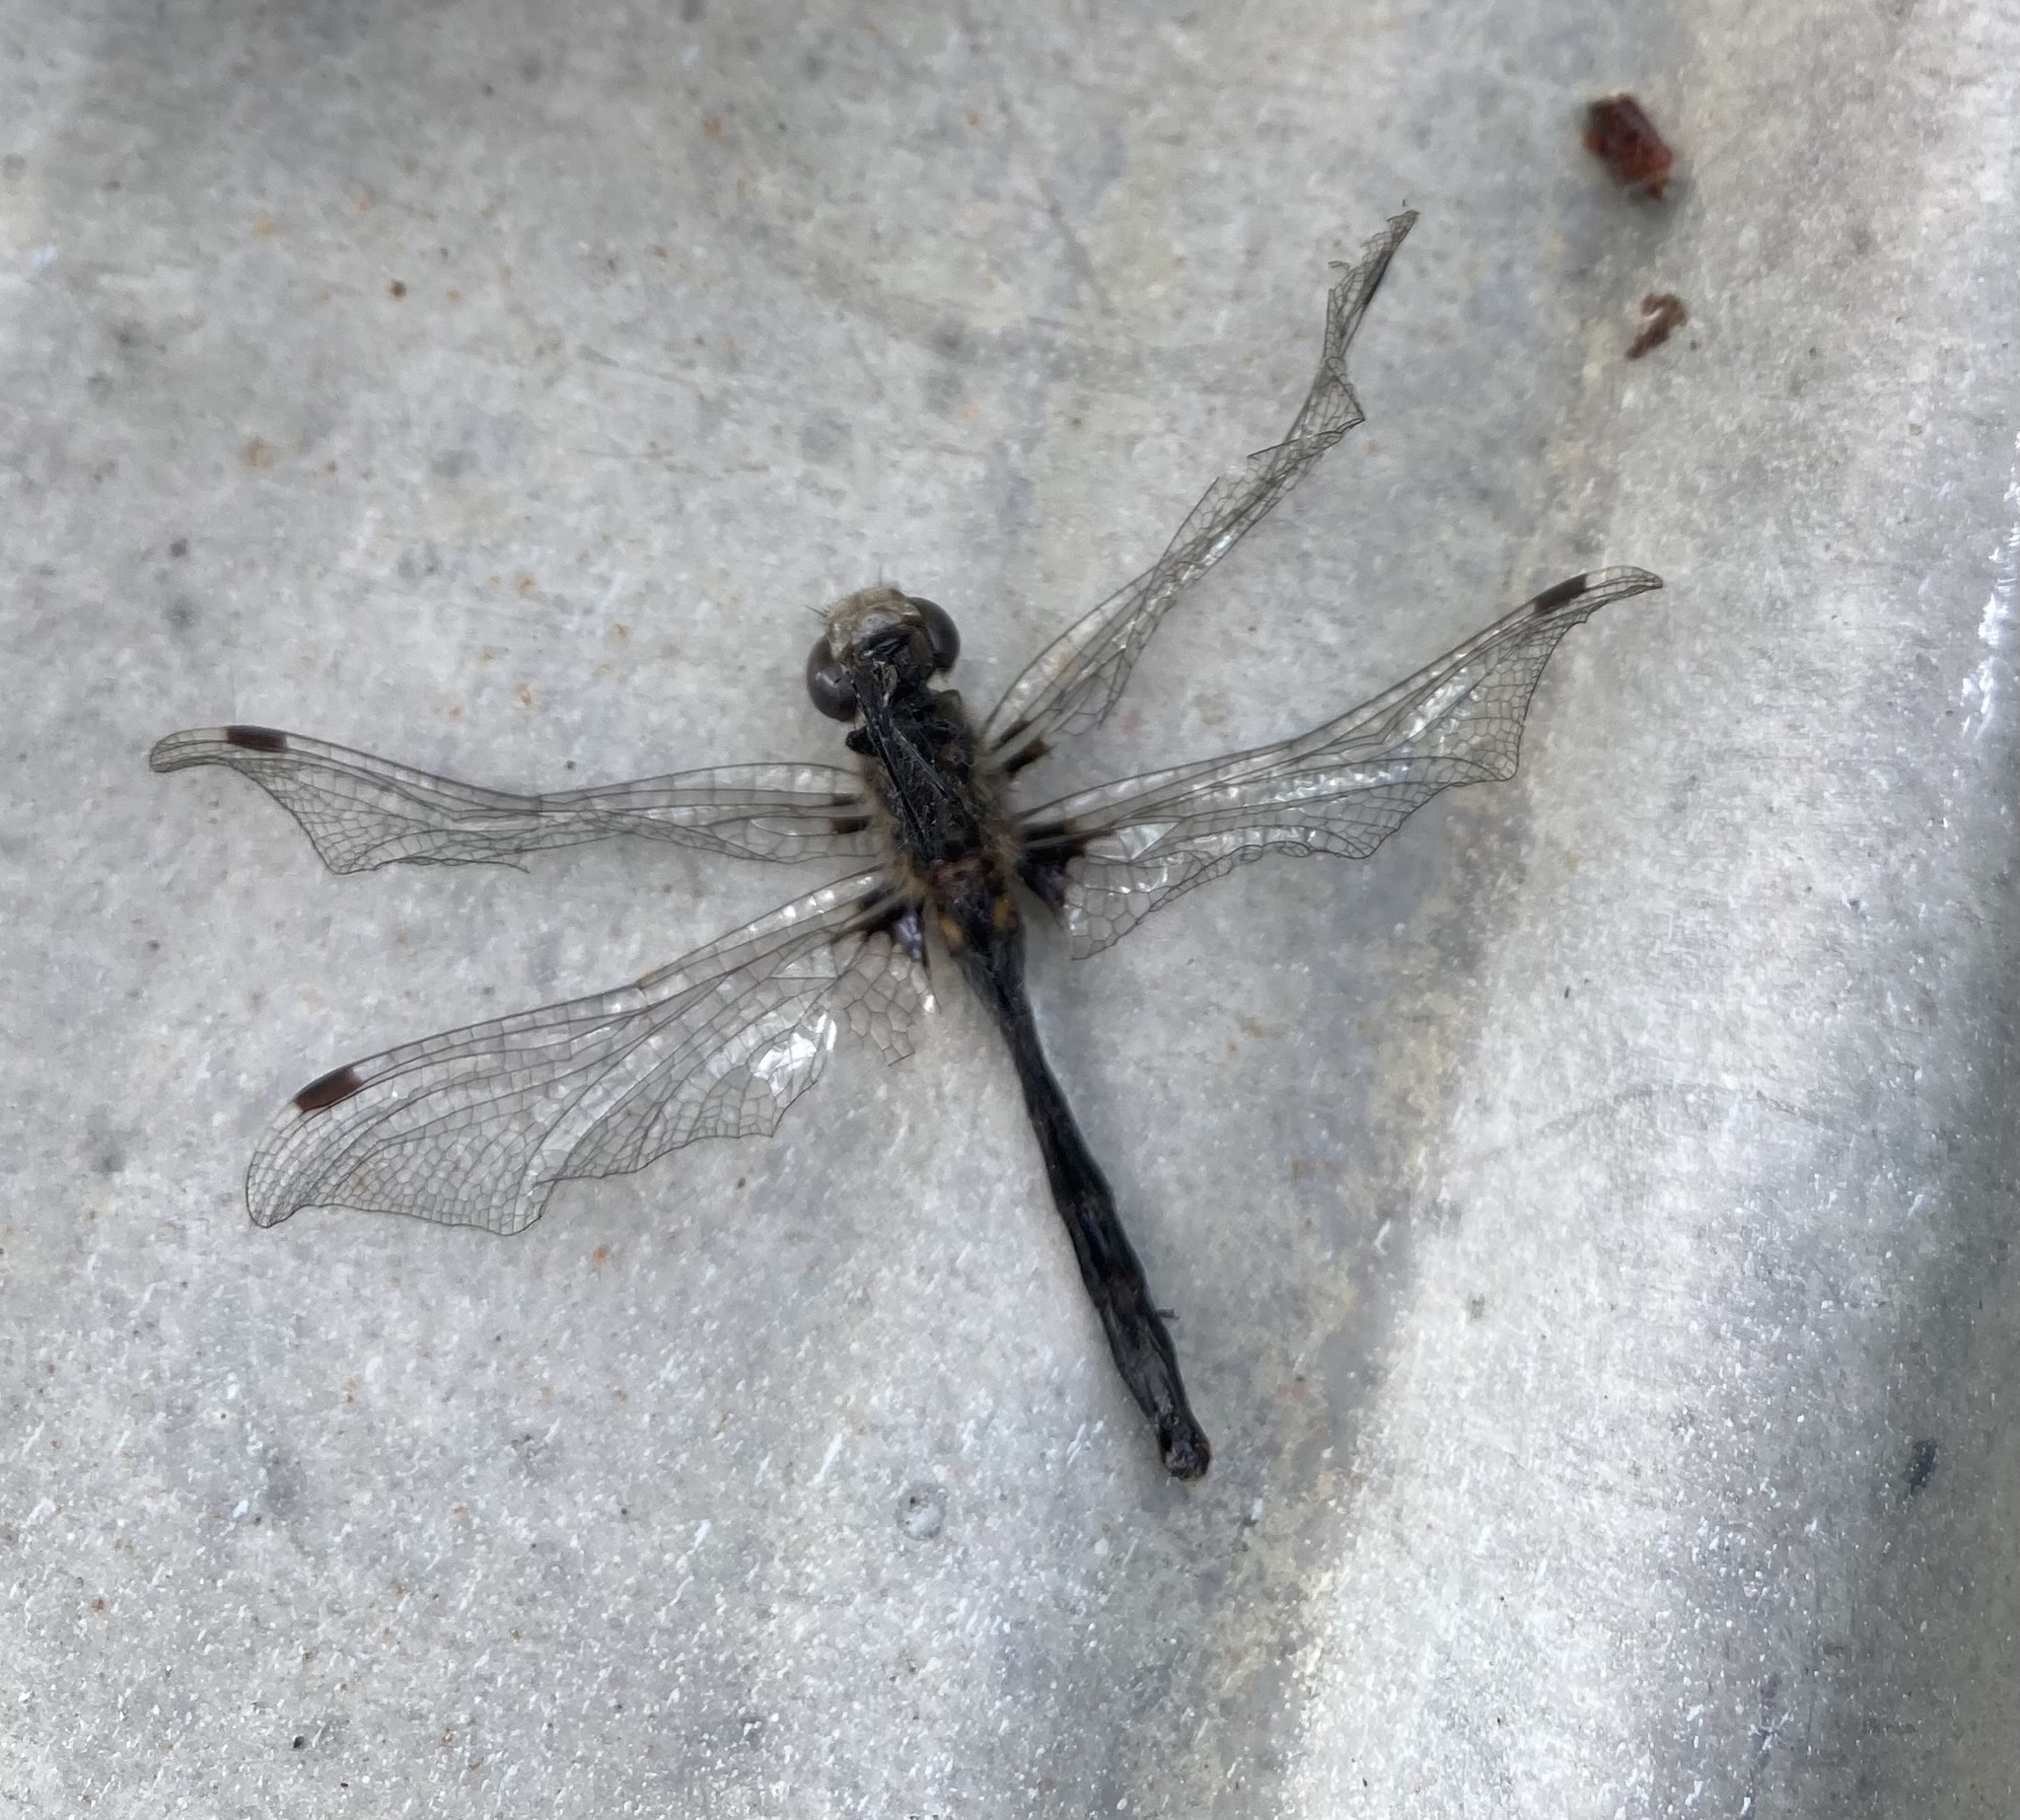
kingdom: Animalia
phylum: Arthropoda
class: Insecta
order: Odonata
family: Libellulidae
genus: Leucorrhinia
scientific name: Leucorrhinia hudsonica
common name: Hudsonian whiteface
